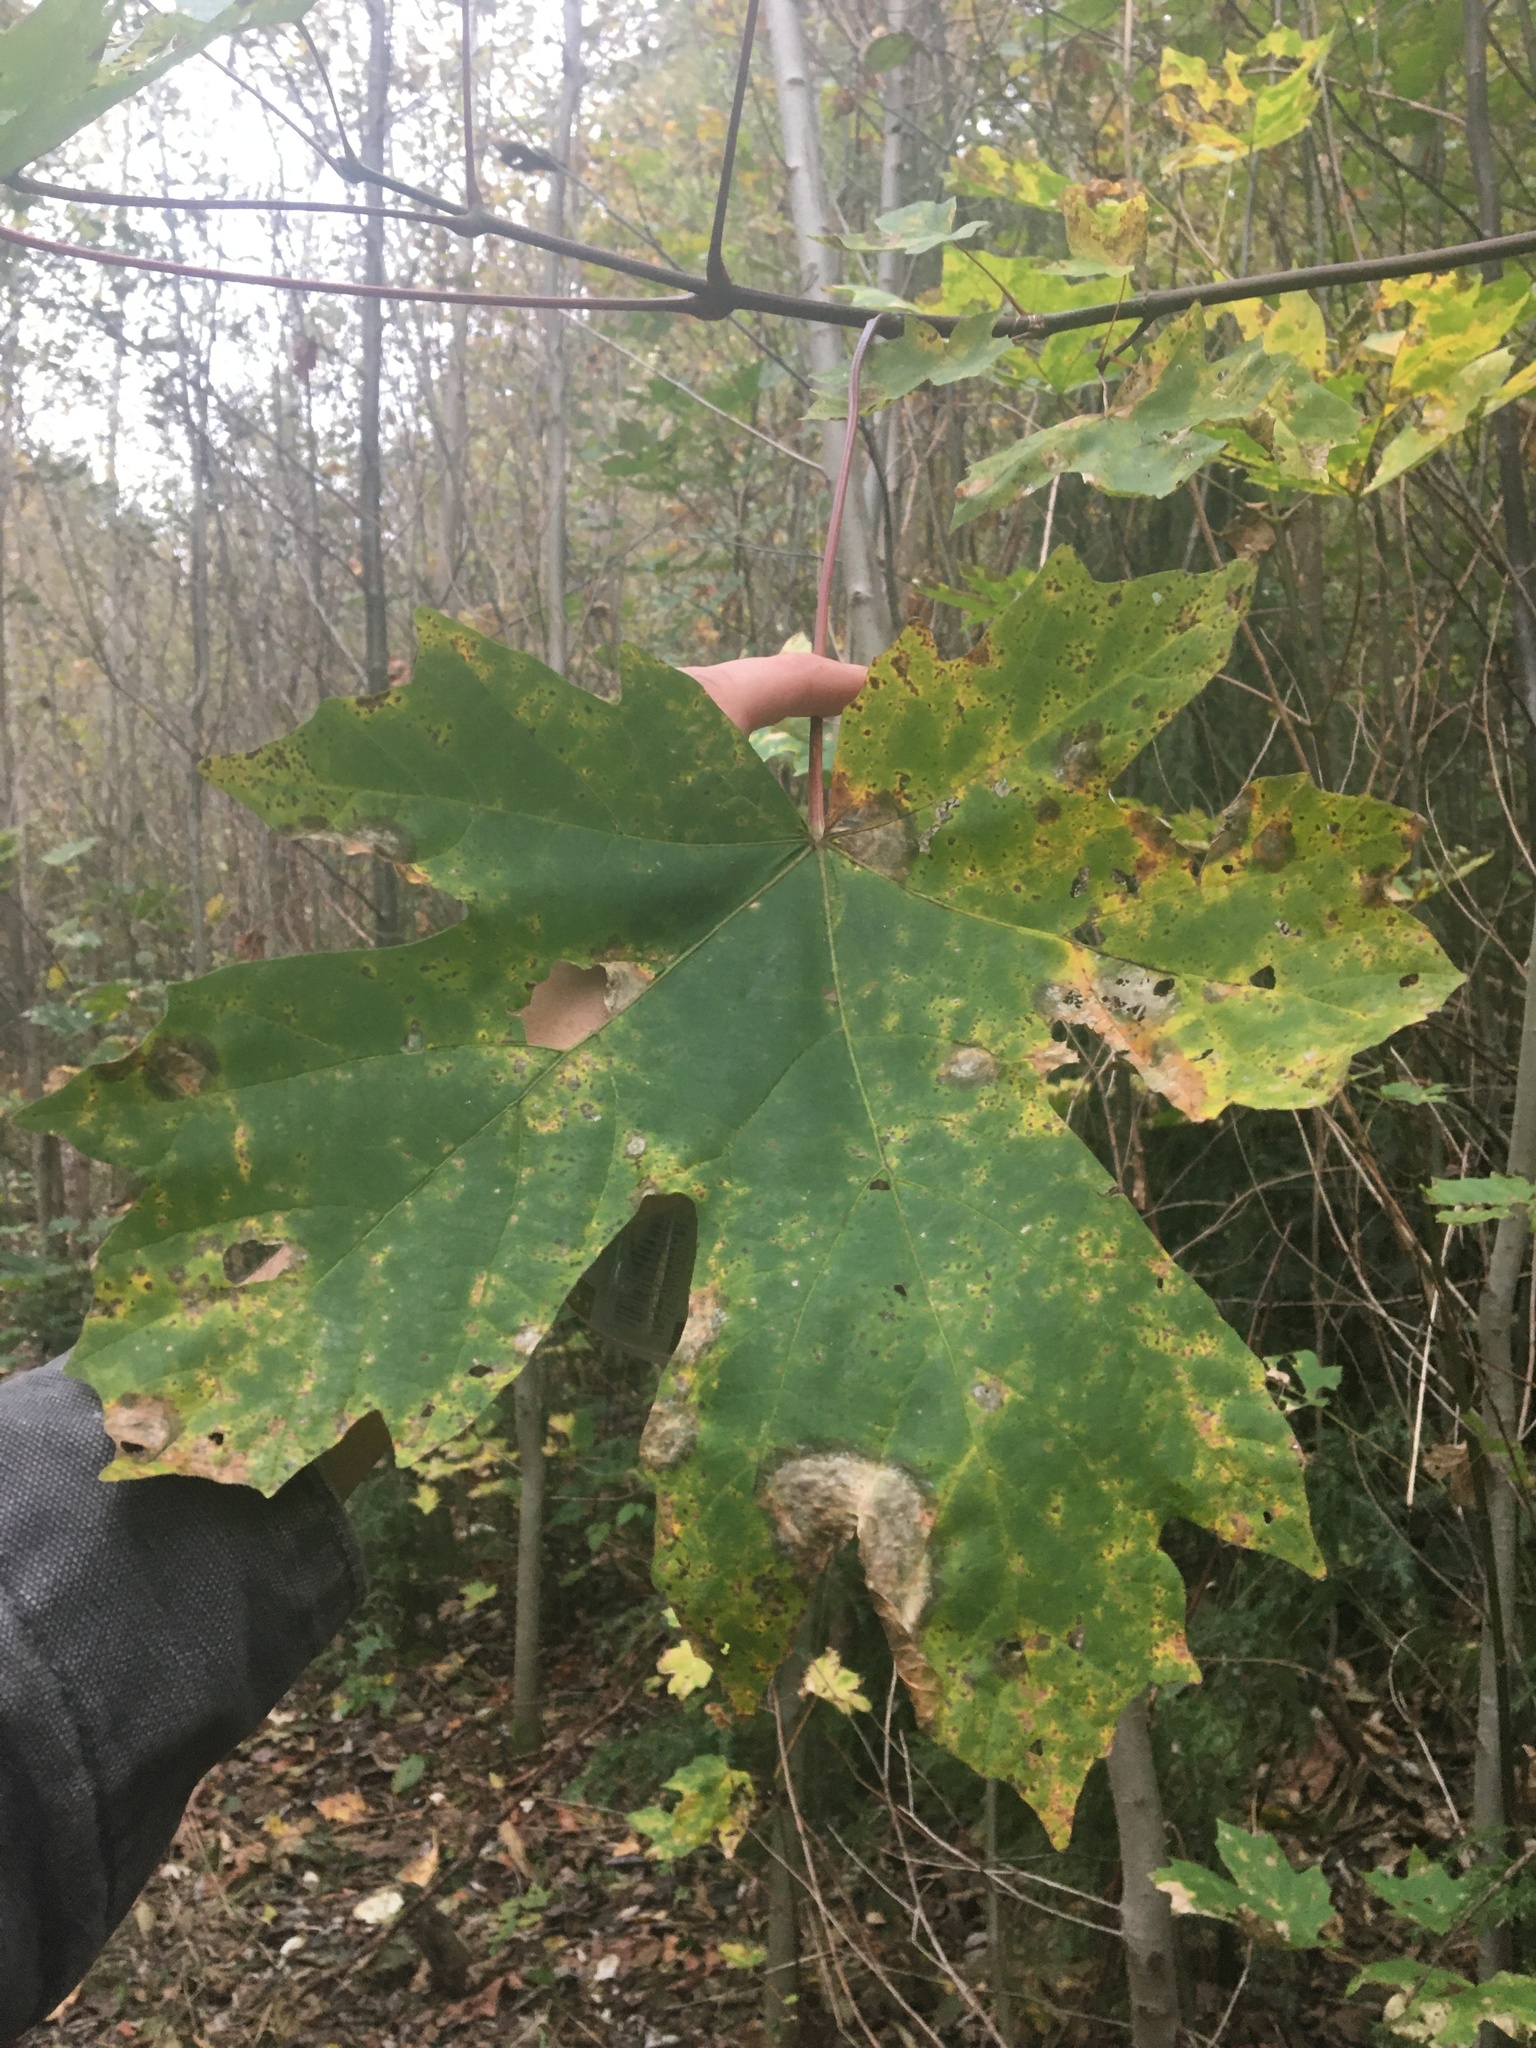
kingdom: Plantae
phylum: Tracheophyta
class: Magnoliopsida
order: Sapindales
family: Sapindaceae
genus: Acer
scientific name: Acer macrophyllum
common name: Oregon maple
